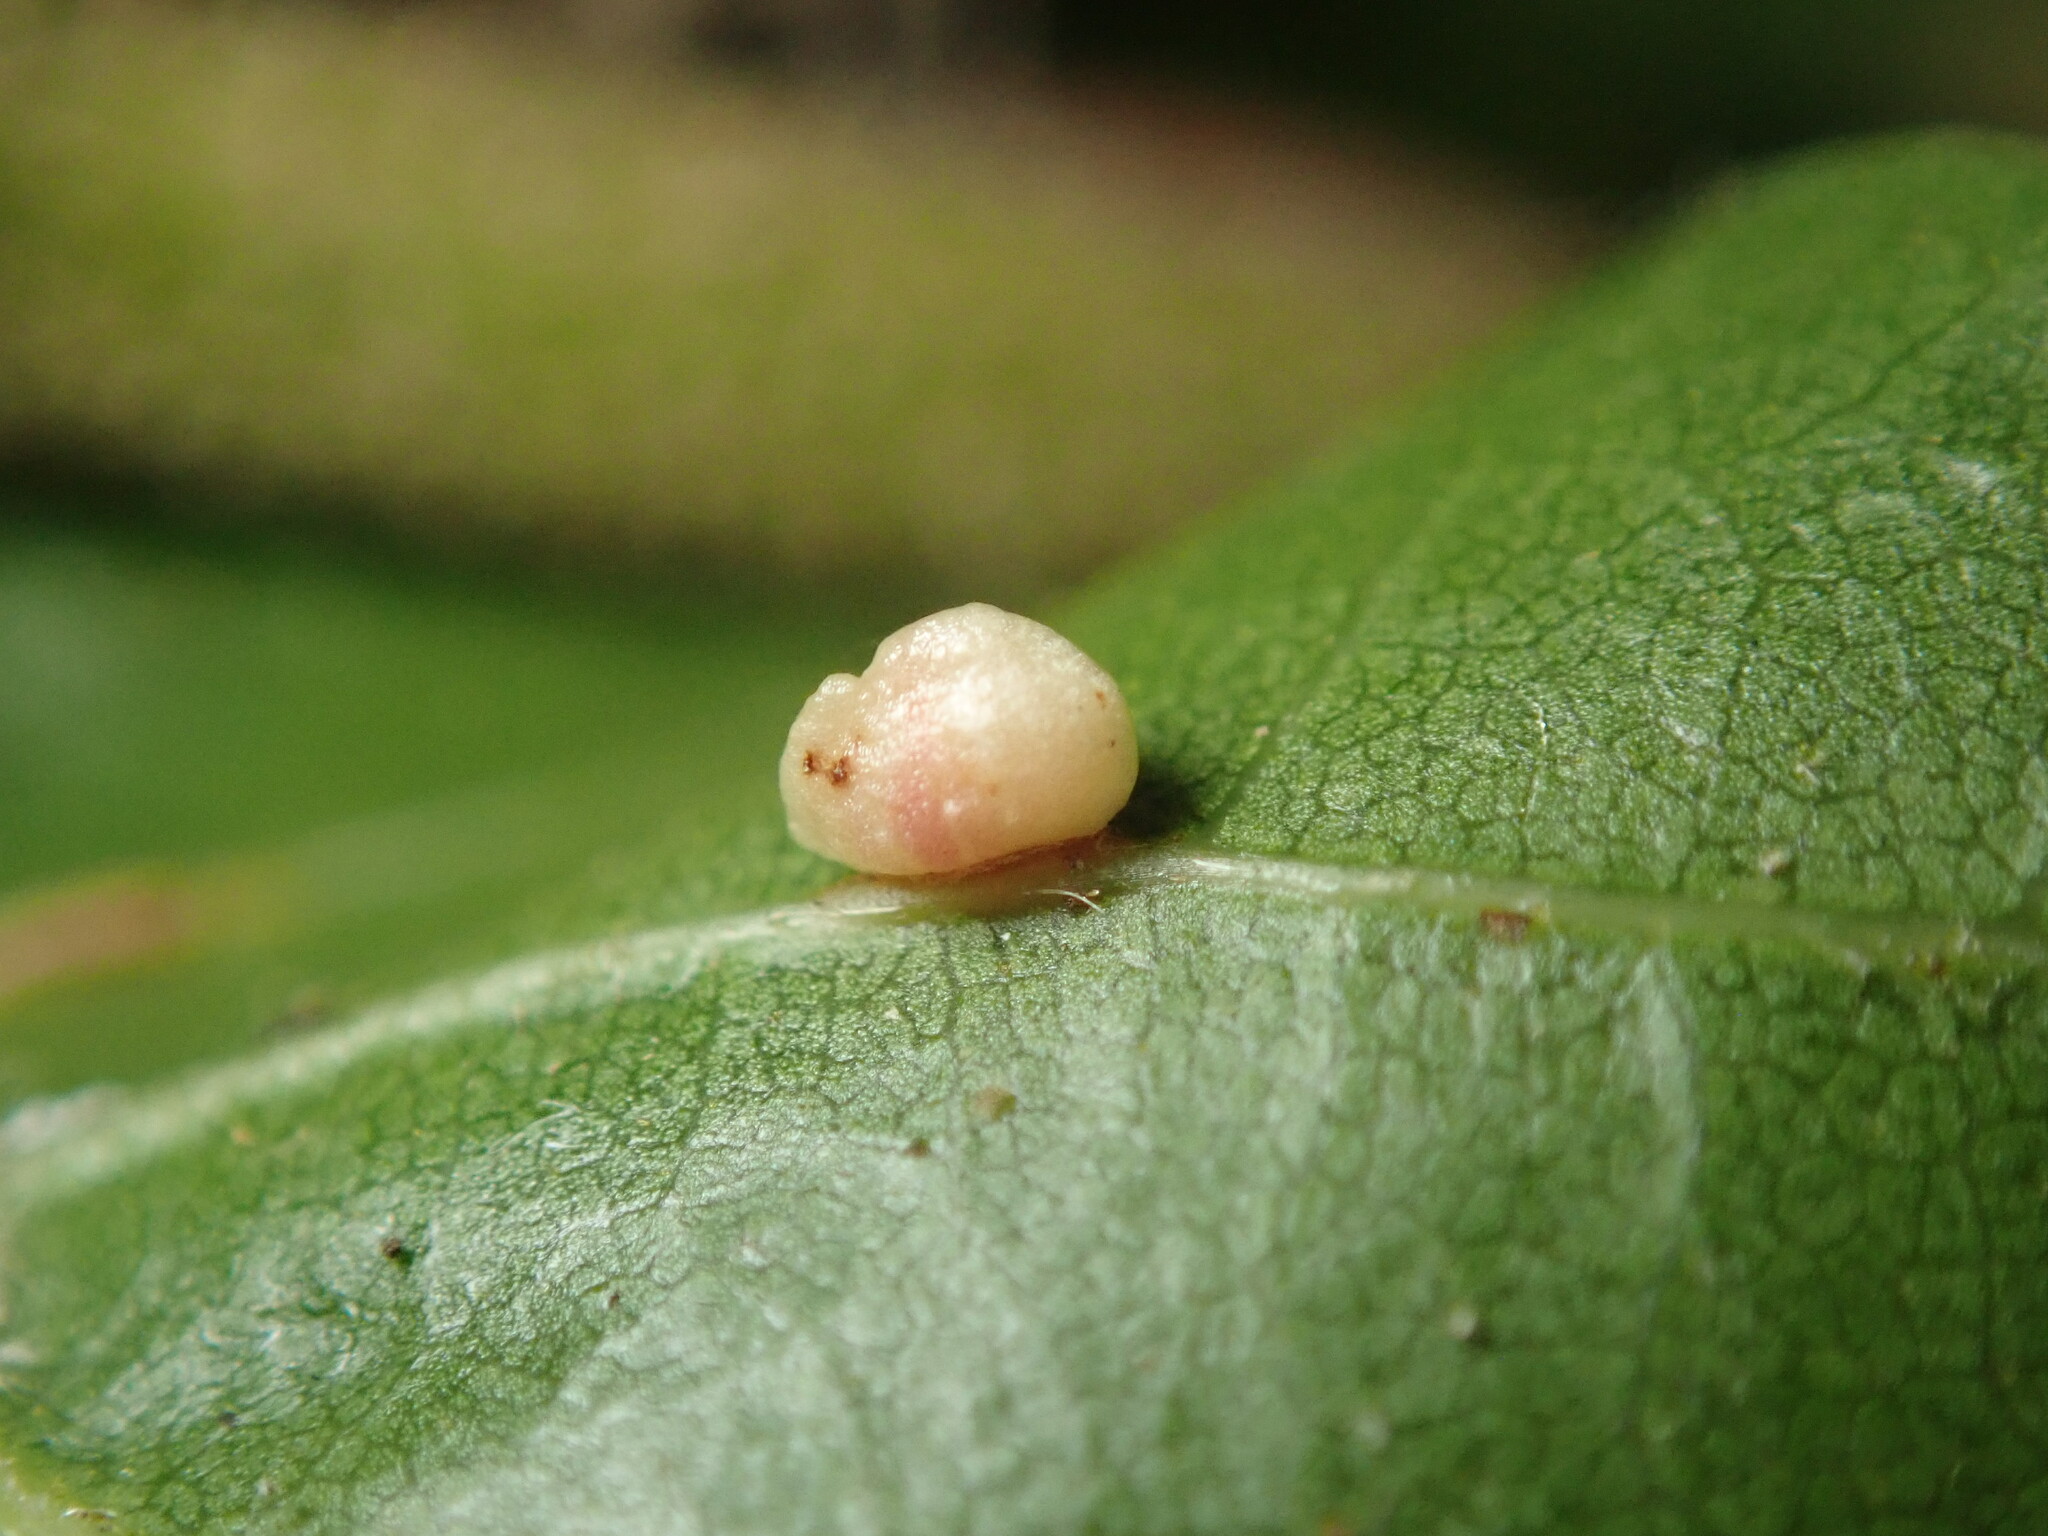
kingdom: Animalia
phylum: Arthropoda
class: Insecta
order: Hymenoptera
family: Cynipidae
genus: Dryocosmus
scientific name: Dryocosmus
